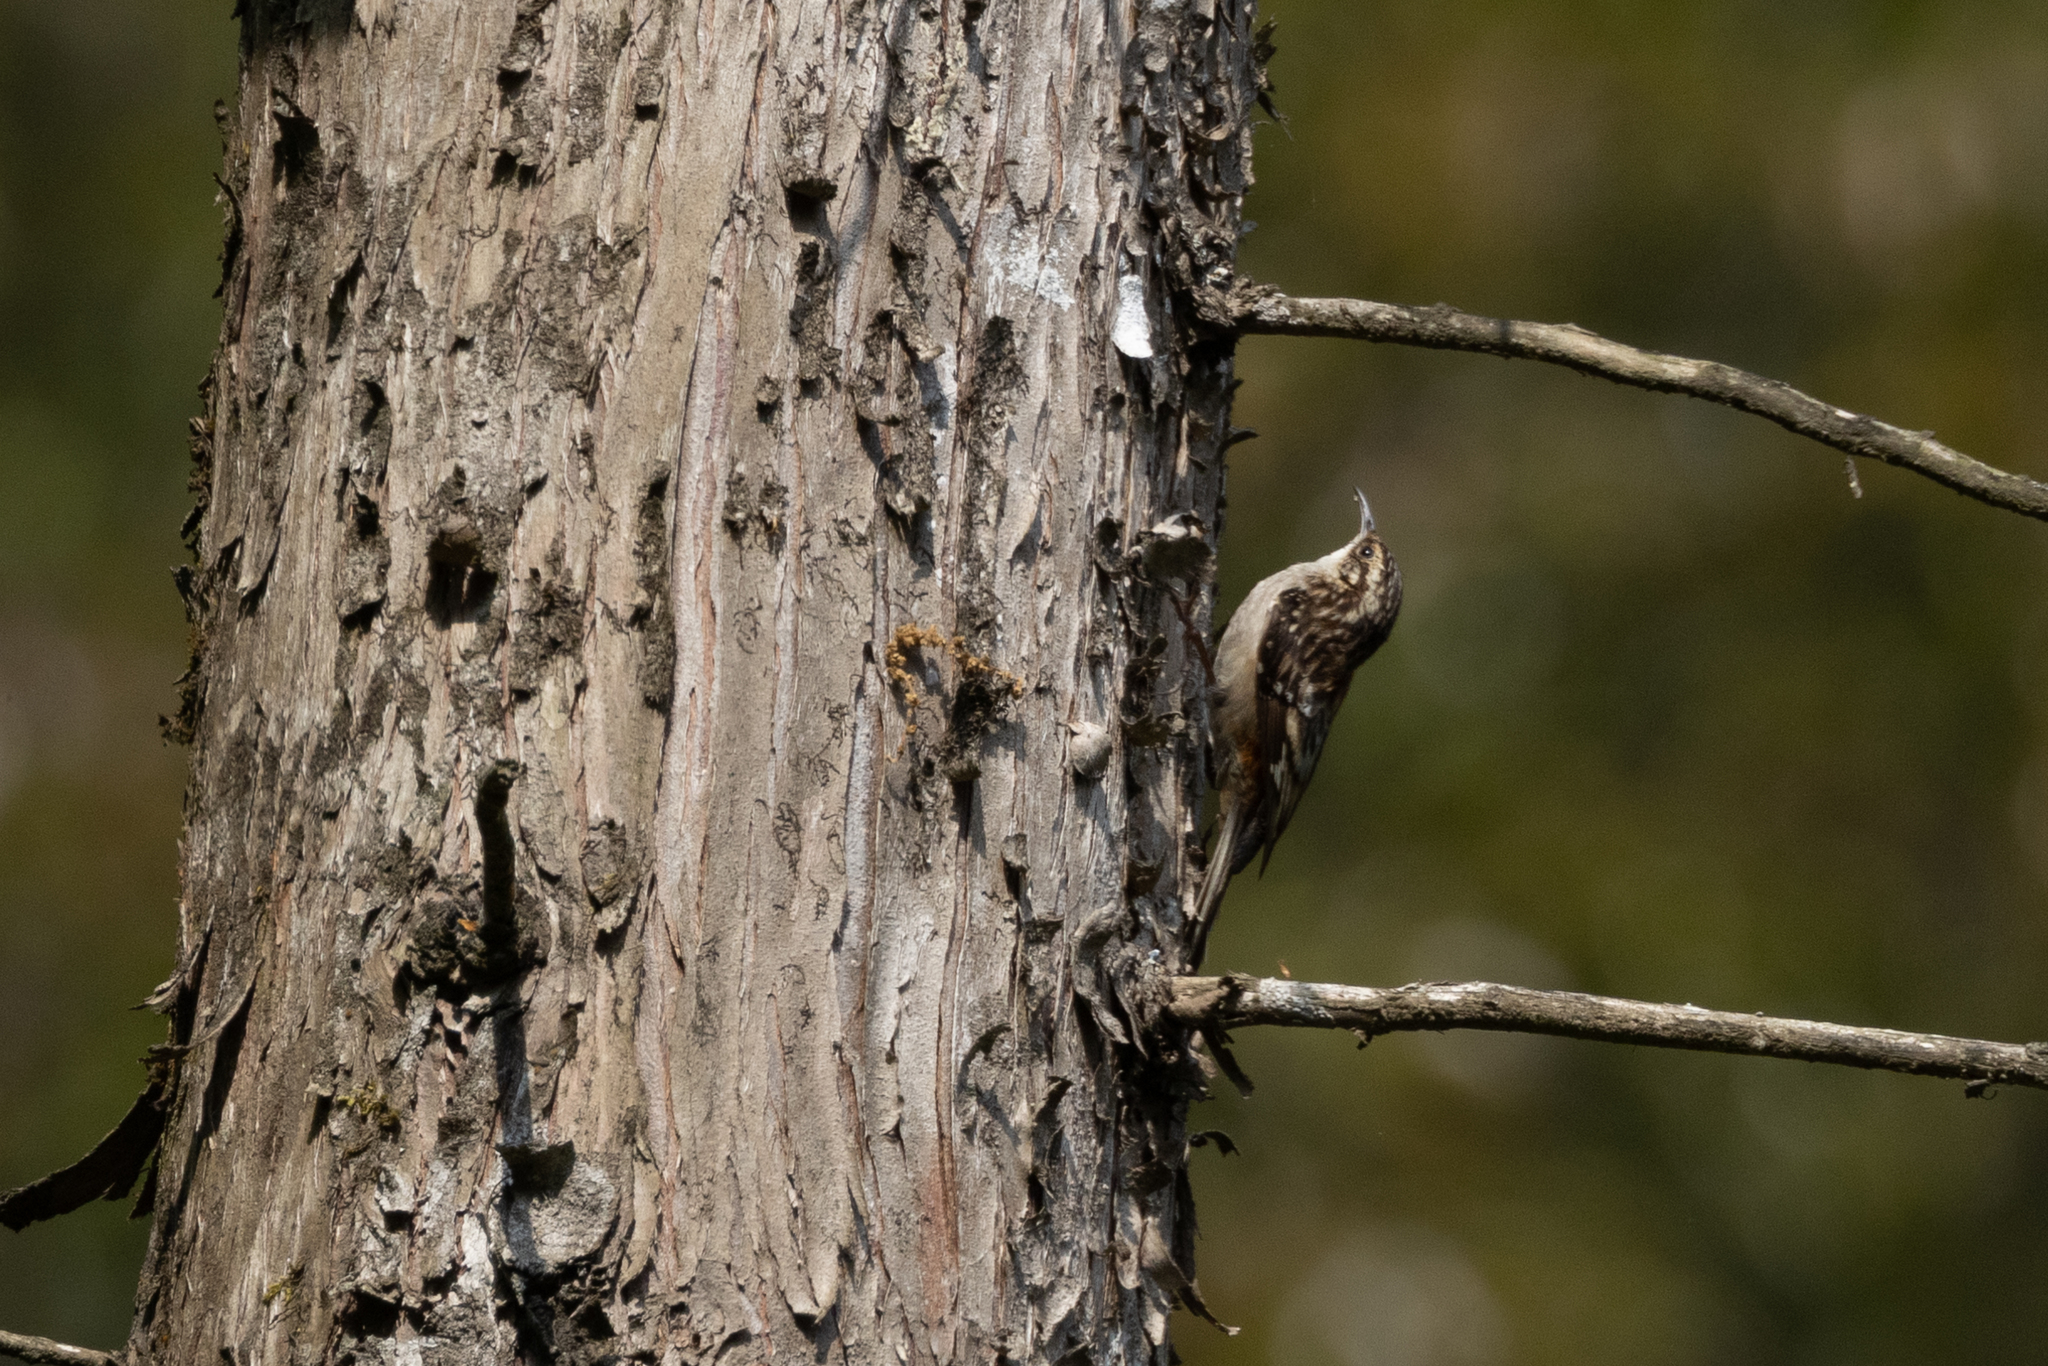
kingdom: Animalia
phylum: Chordata
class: Aves
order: Passeriformes
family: Certhiidae
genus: Certhia
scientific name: Certhia americana
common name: Brown creeper
